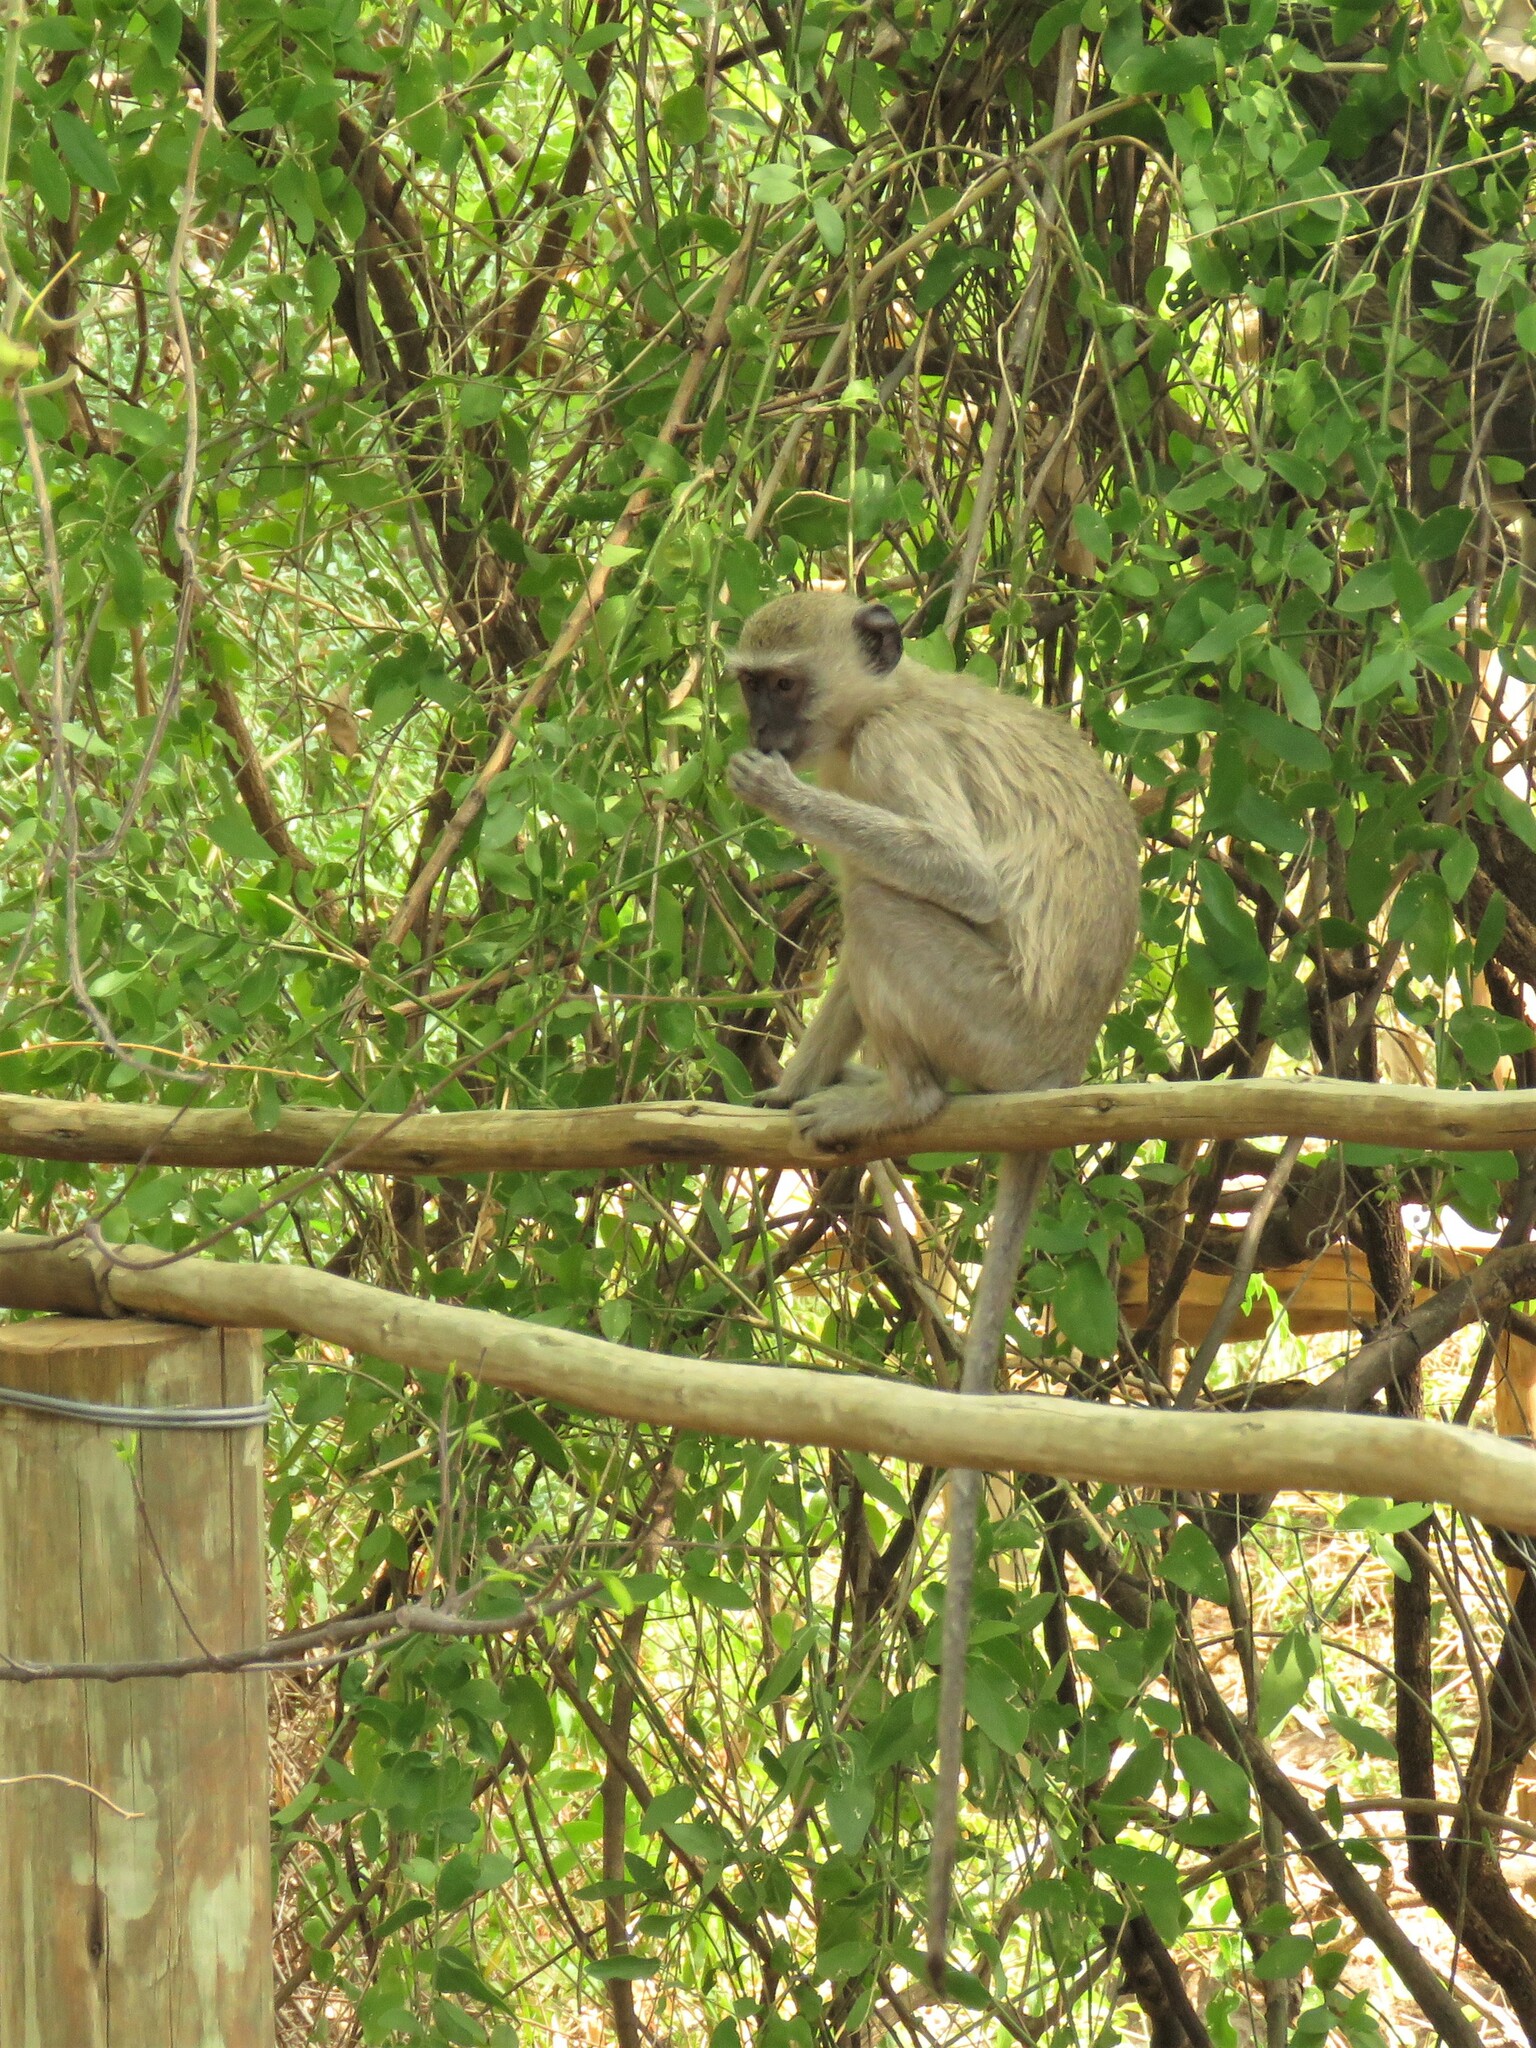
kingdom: Animalia
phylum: Chordata
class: Mammalia
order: Primates
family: Cercopithecidae
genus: Chlorocebus
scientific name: Chlorocebus cynosuros
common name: Malbrouck
